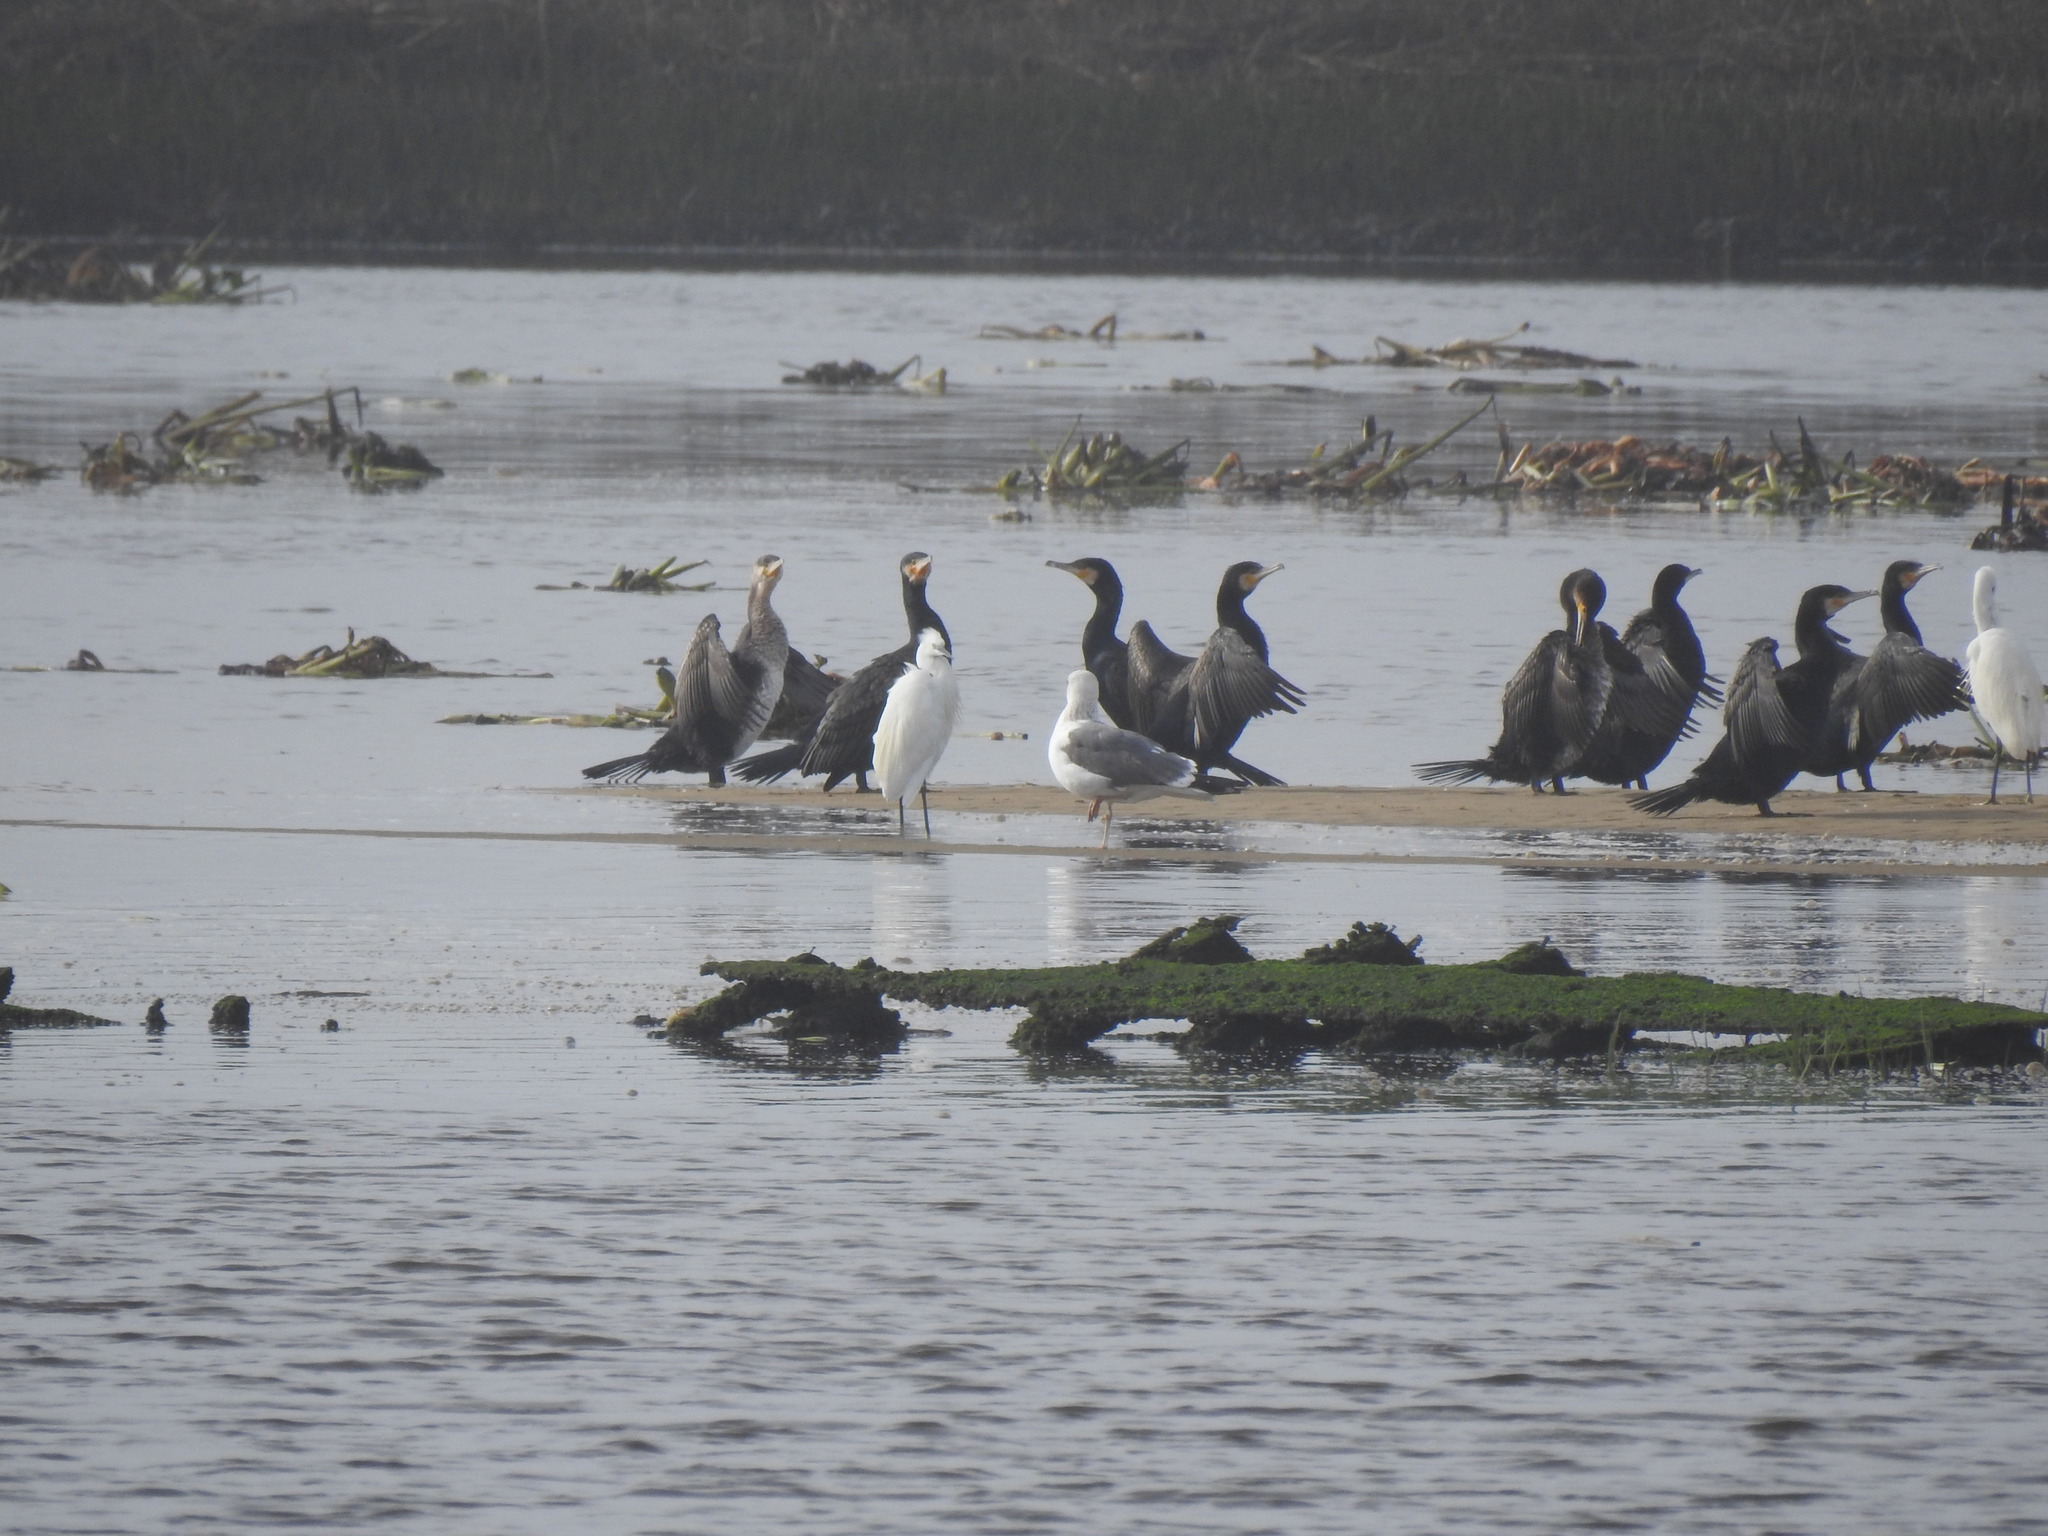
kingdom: Animalia
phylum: Chordata
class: Aves
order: Charadriiformes
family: Laridae
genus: Larus
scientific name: Larus michahellis
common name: Yellow-legged gull
